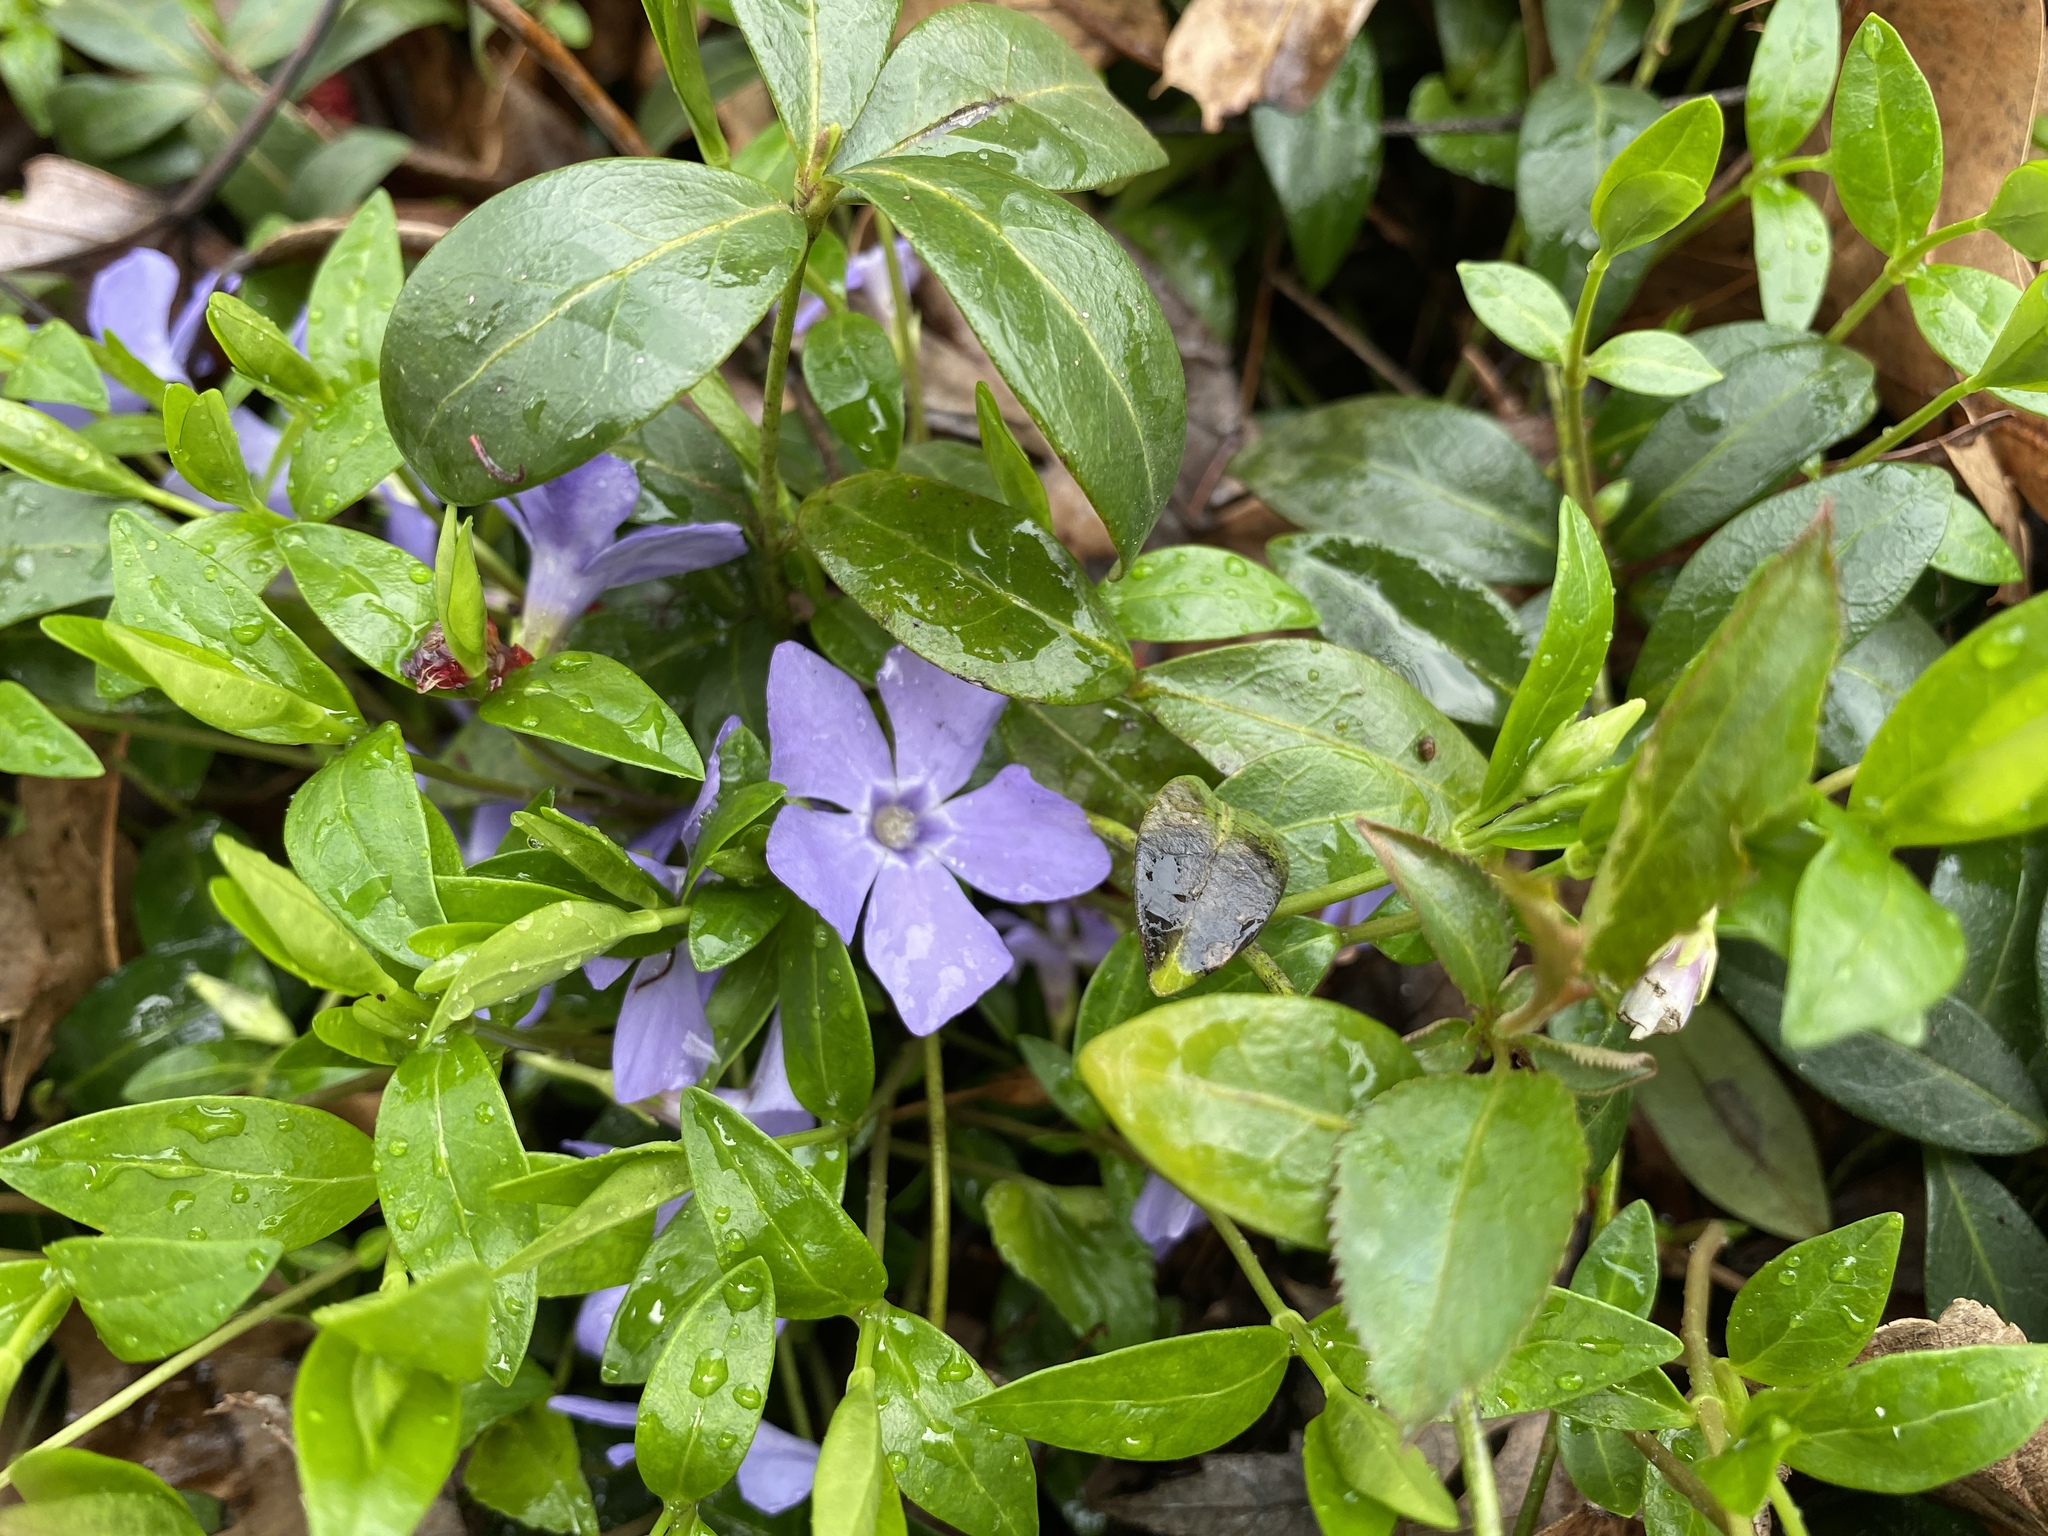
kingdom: Plantae
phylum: Tracheophyta
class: Magnoliopsida
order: Gentianales
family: Apocynaceae
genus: Vinca
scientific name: Vinca minor
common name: Lesser periwinkle
